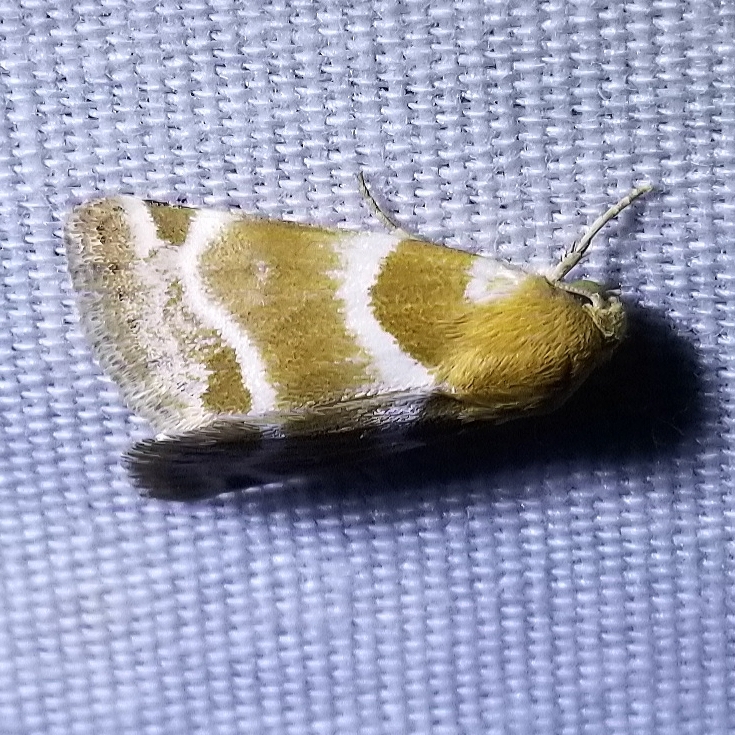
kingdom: Animalia
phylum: Arthropoda
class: Insecta
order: Lepidoptera
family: Noctuidae
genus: Schinia
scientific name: Schinia tobia
